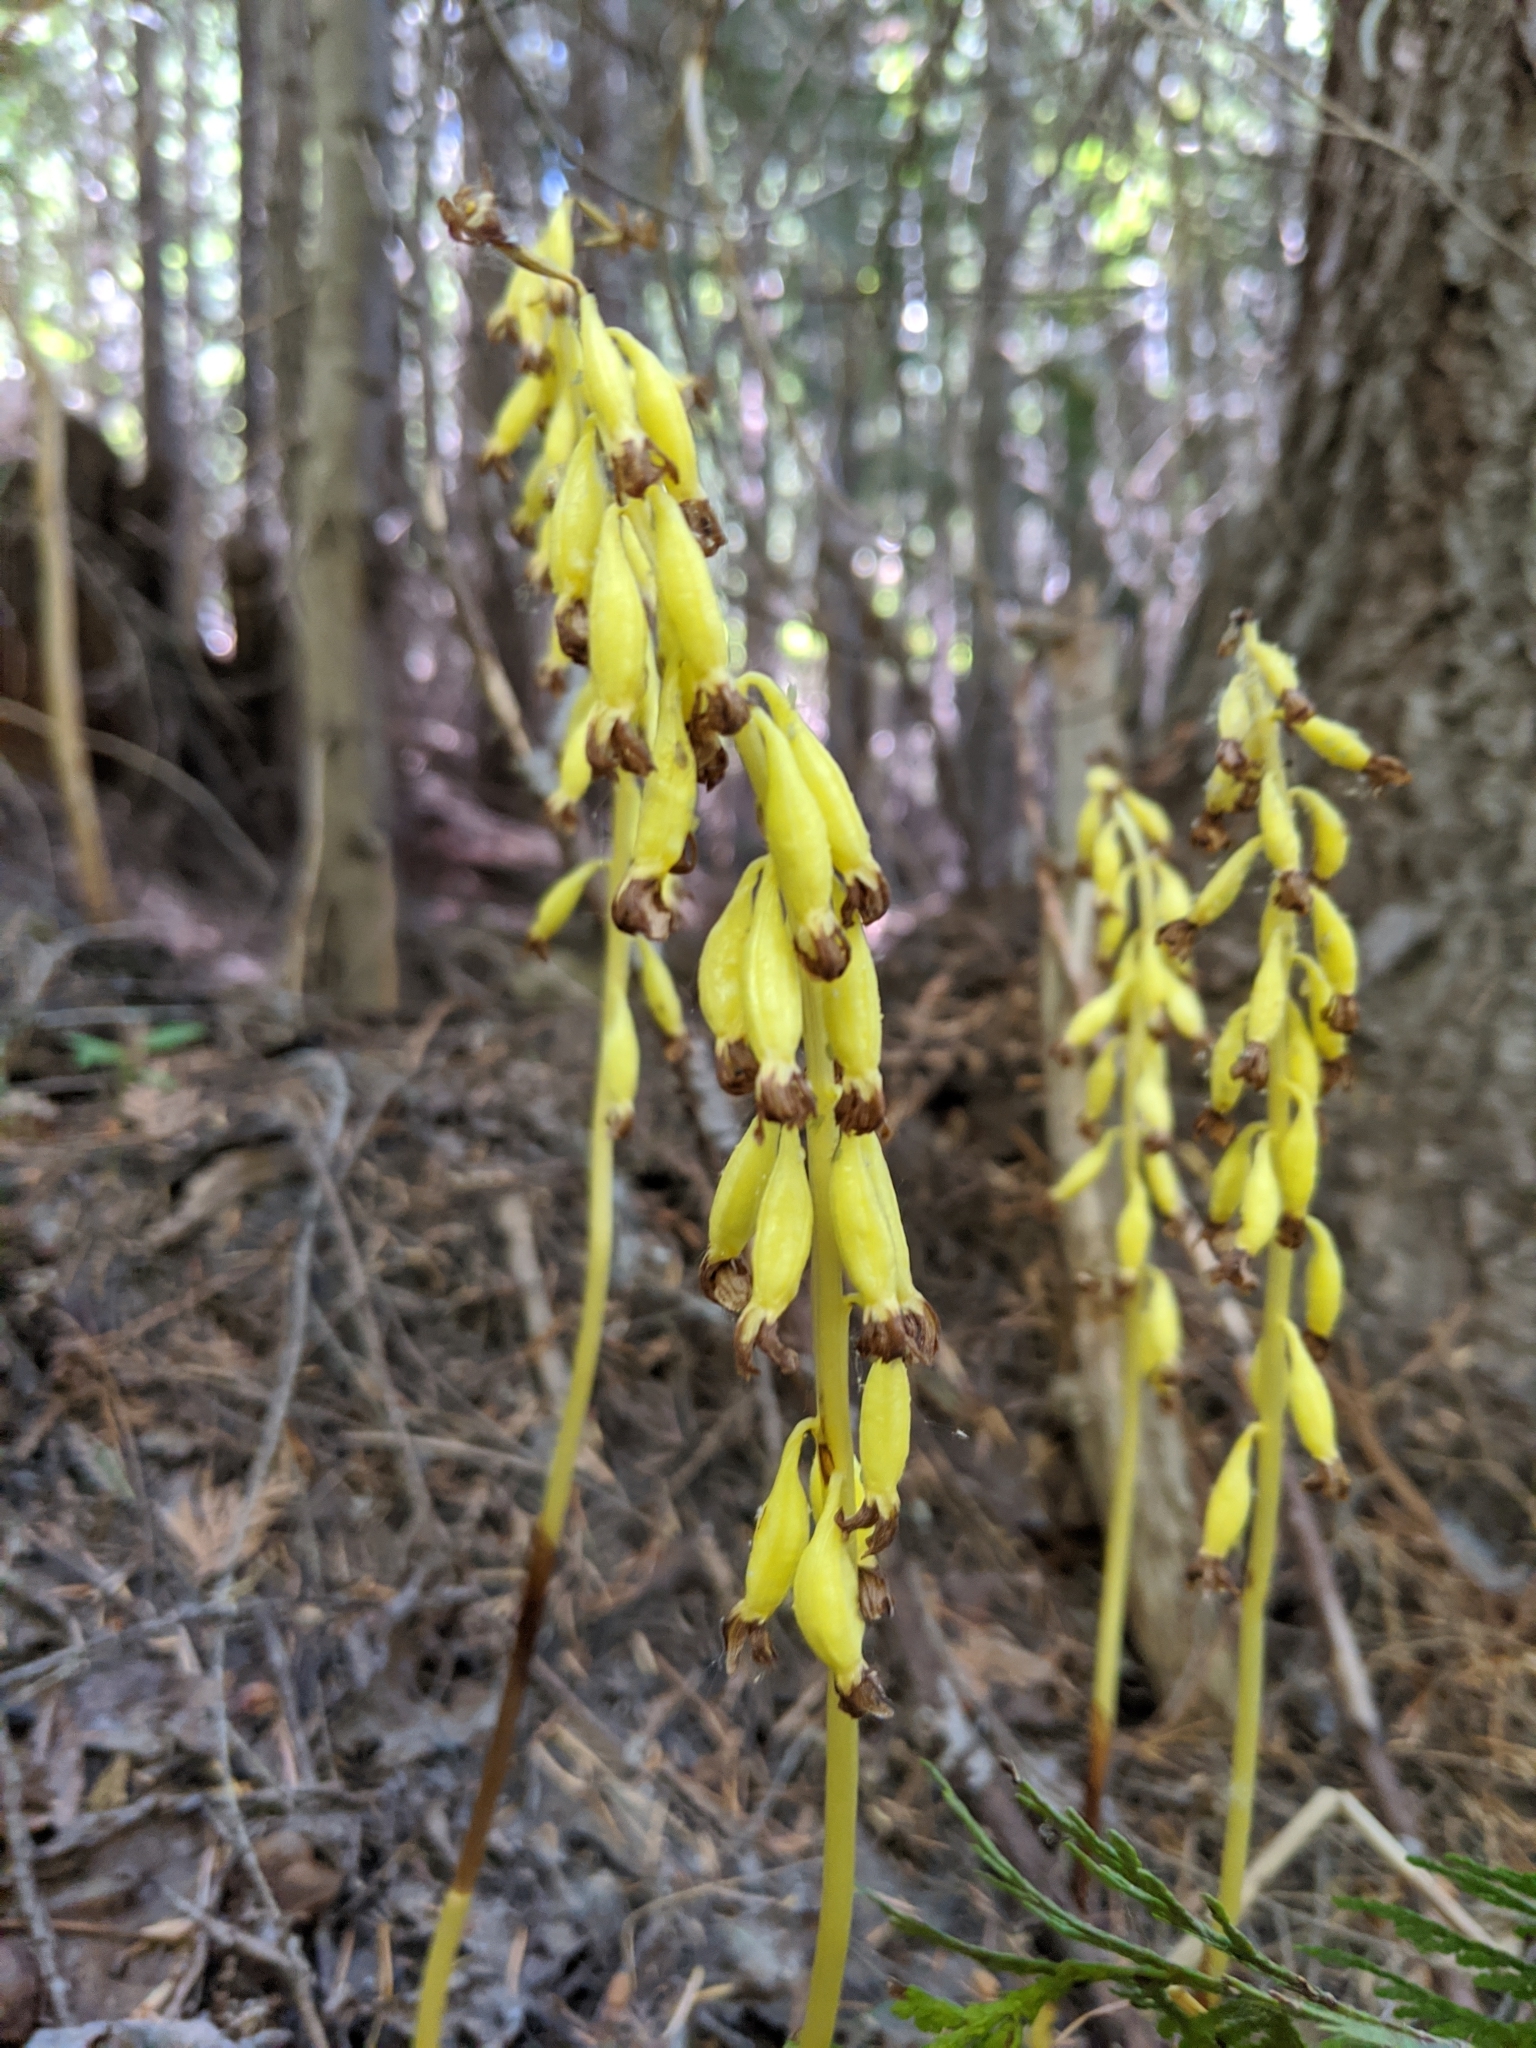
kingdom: Plantae
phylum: Tracheophyta
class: Liliopsida
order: Asparagales
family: Orchidaceae
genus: Corallorhiza
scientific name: Corallorhiza maculata
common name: Spotted coralroot
